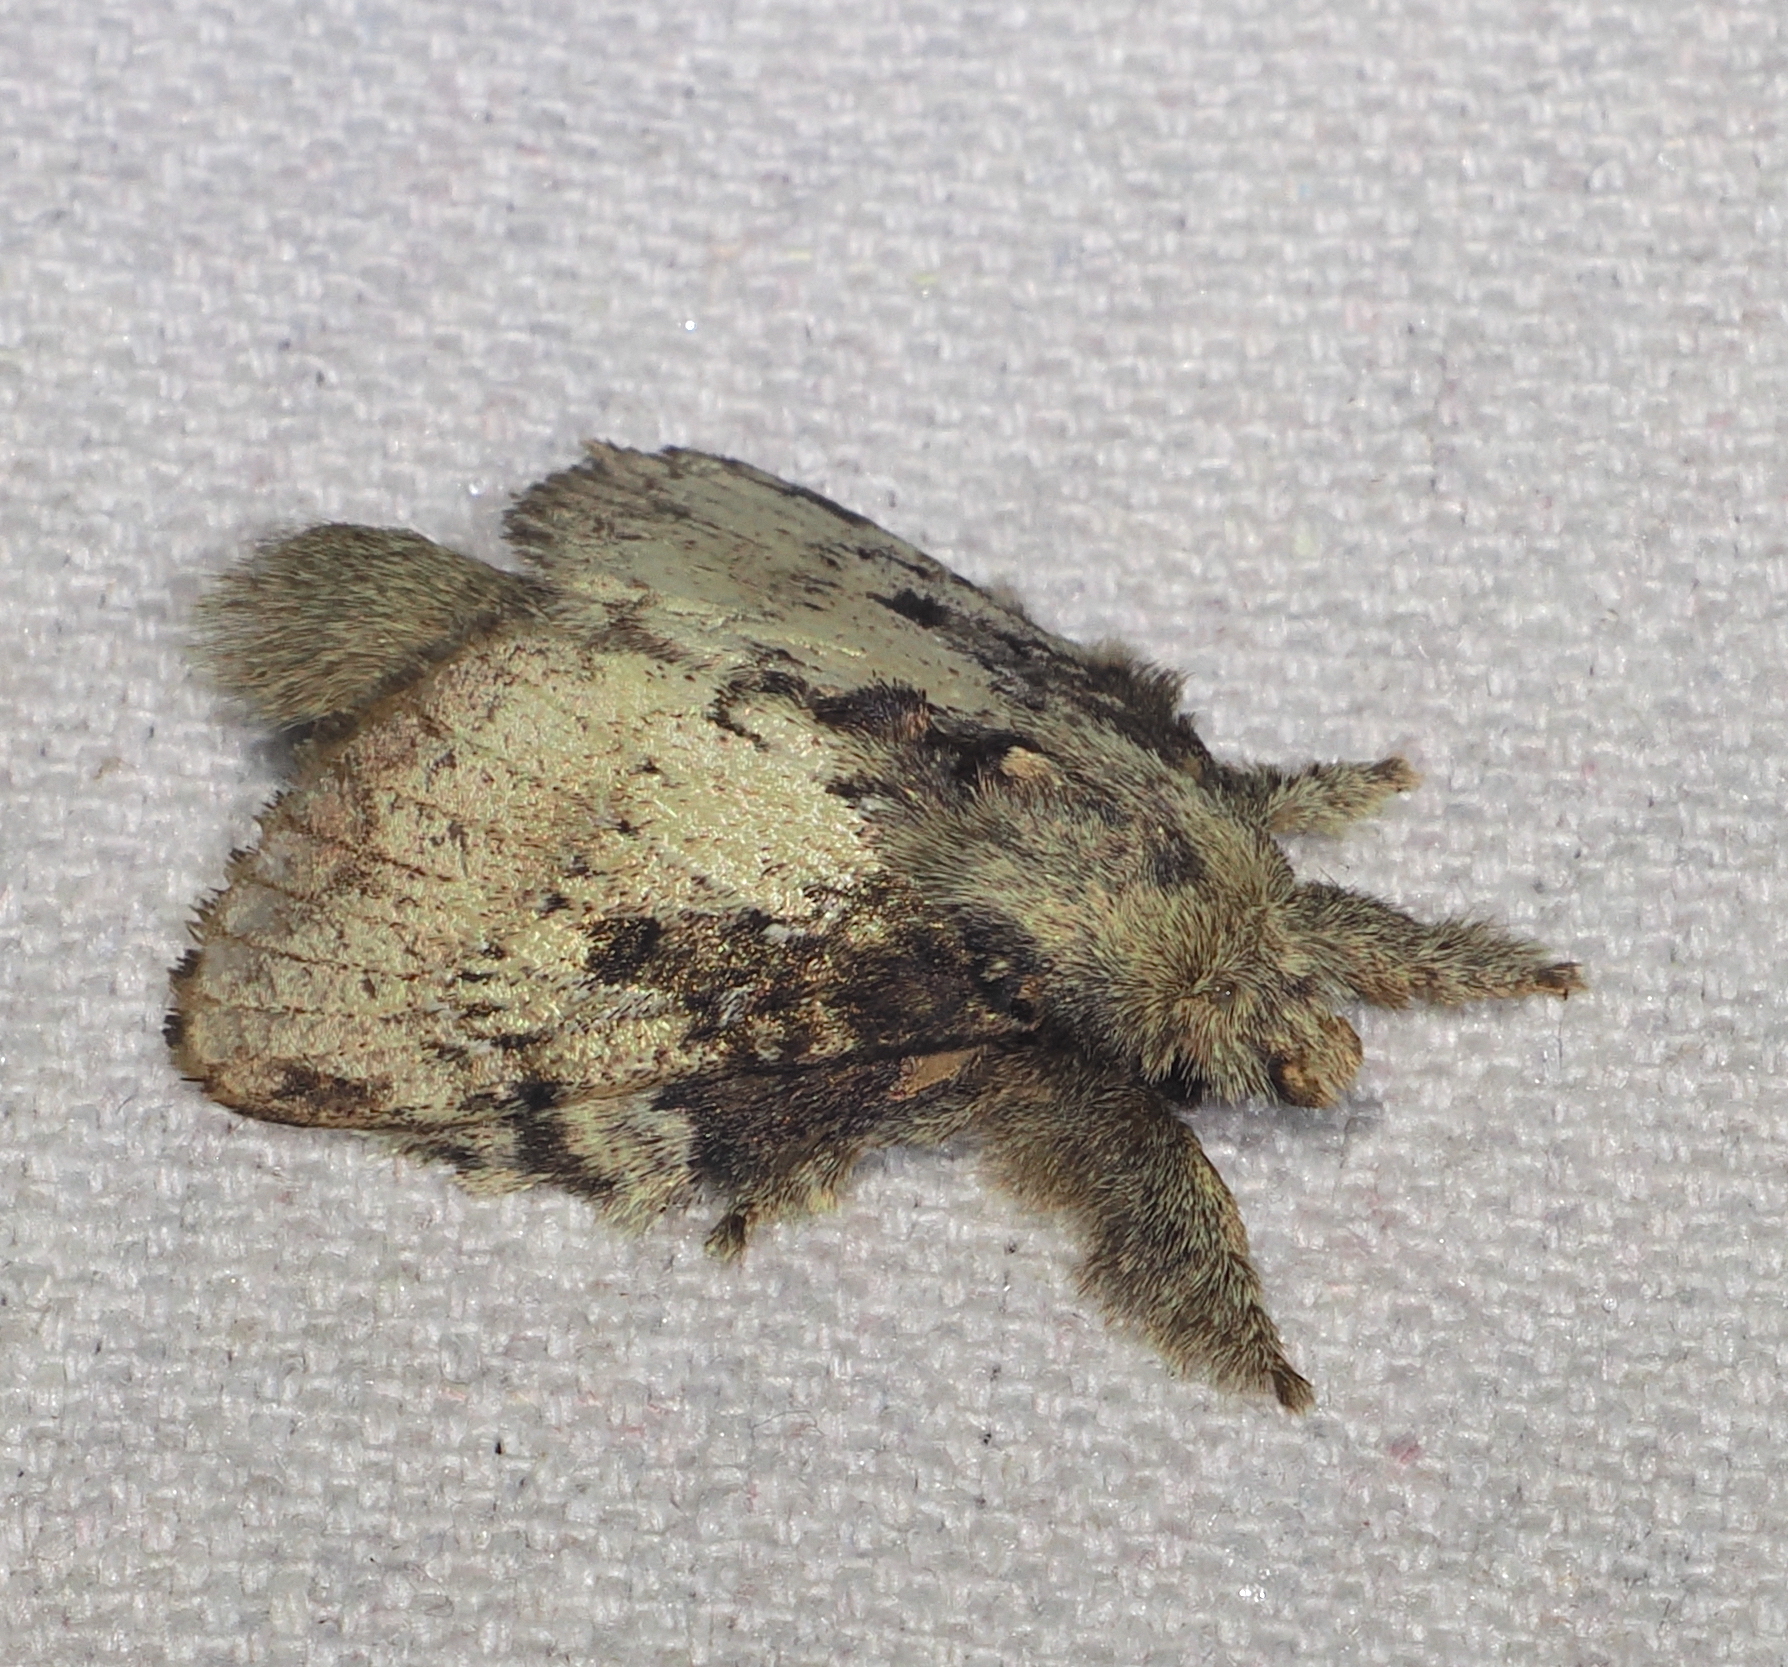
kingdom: Animalia
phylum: Arthropoda
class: Insecta
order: Lepidoptera
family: Lasiocampidae
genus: Euglyphis
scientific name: Euglyphis roxana
